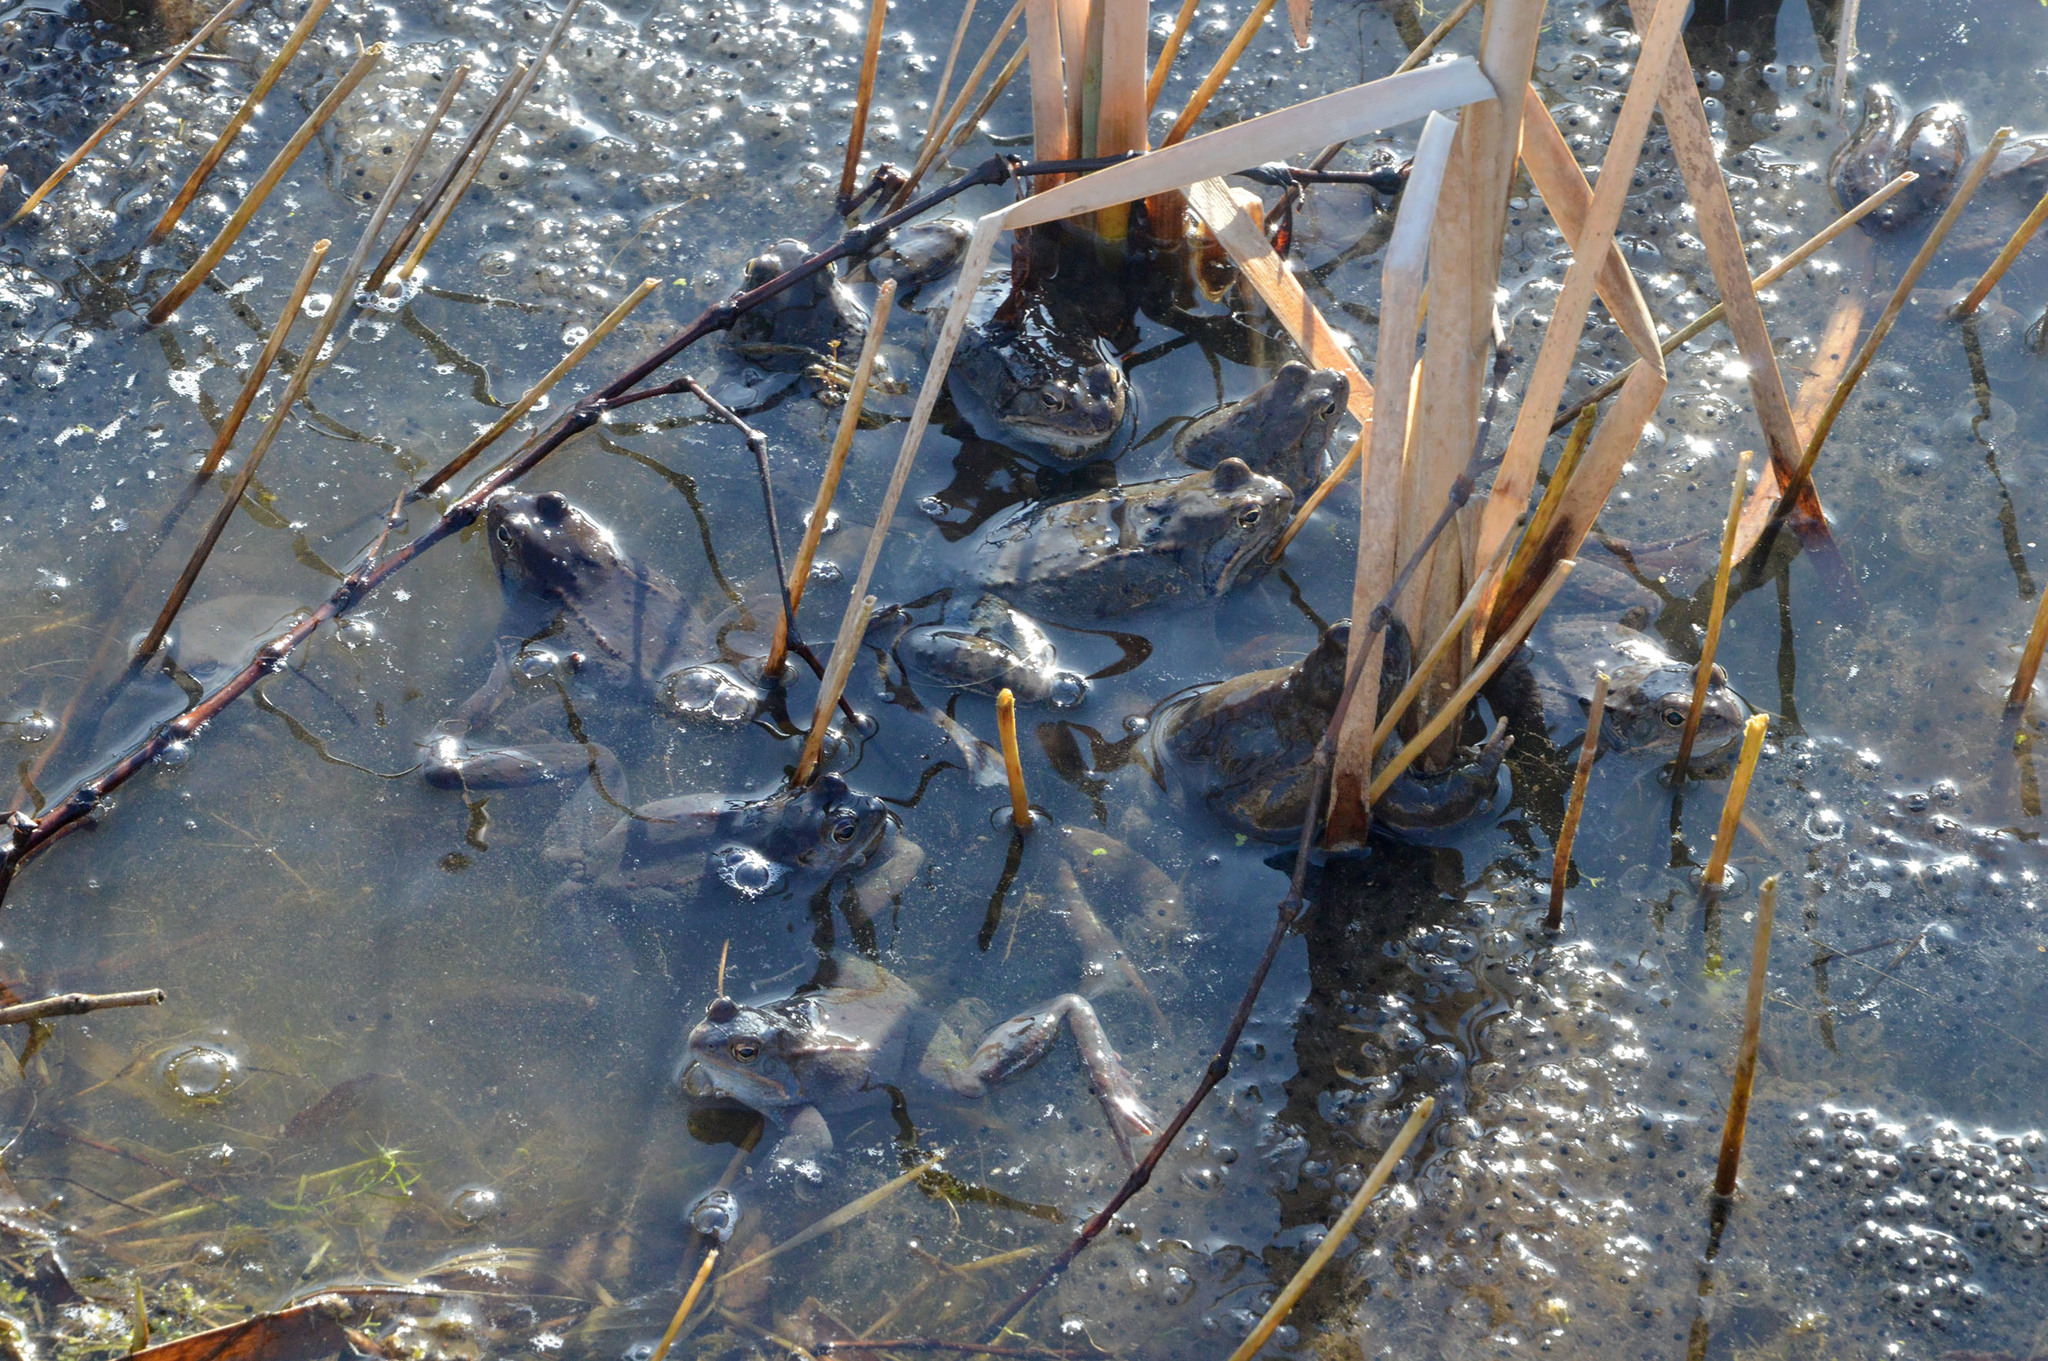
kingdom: Animalia
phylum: Chordata
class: Amphibia
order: Anura
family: Ranidae
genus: Rana
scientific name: Rana temporaria
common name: Common frog
